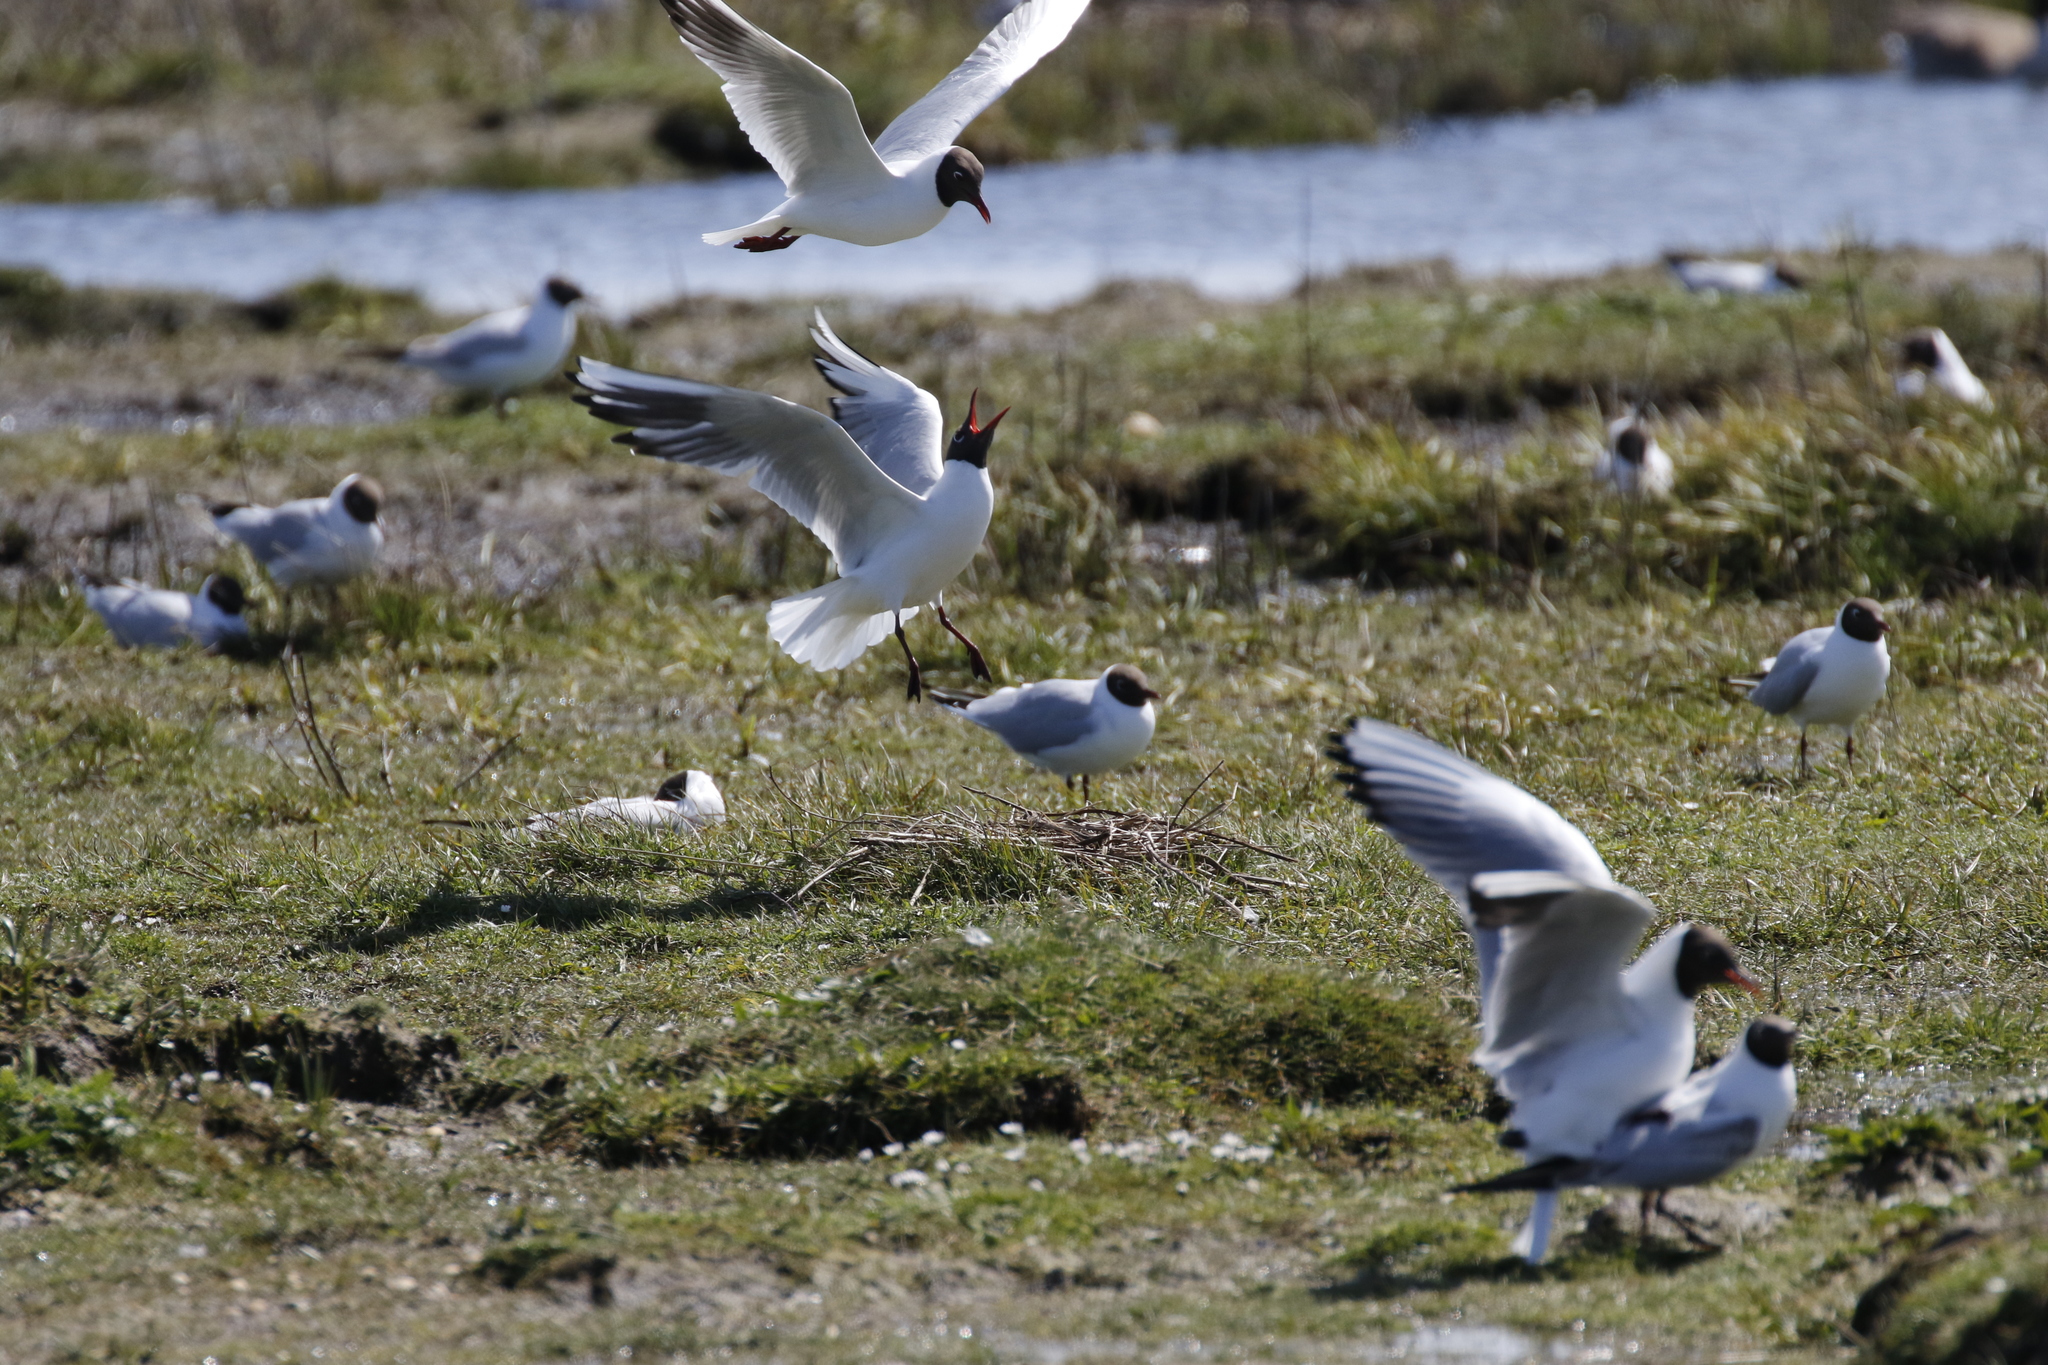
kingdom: Animalia
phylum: Chordata
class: Aves
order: Charadriiformes
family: Laridae
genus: Chroicocephalus
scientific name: Chroicocephalus ridibundus
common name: Black-headed gull
